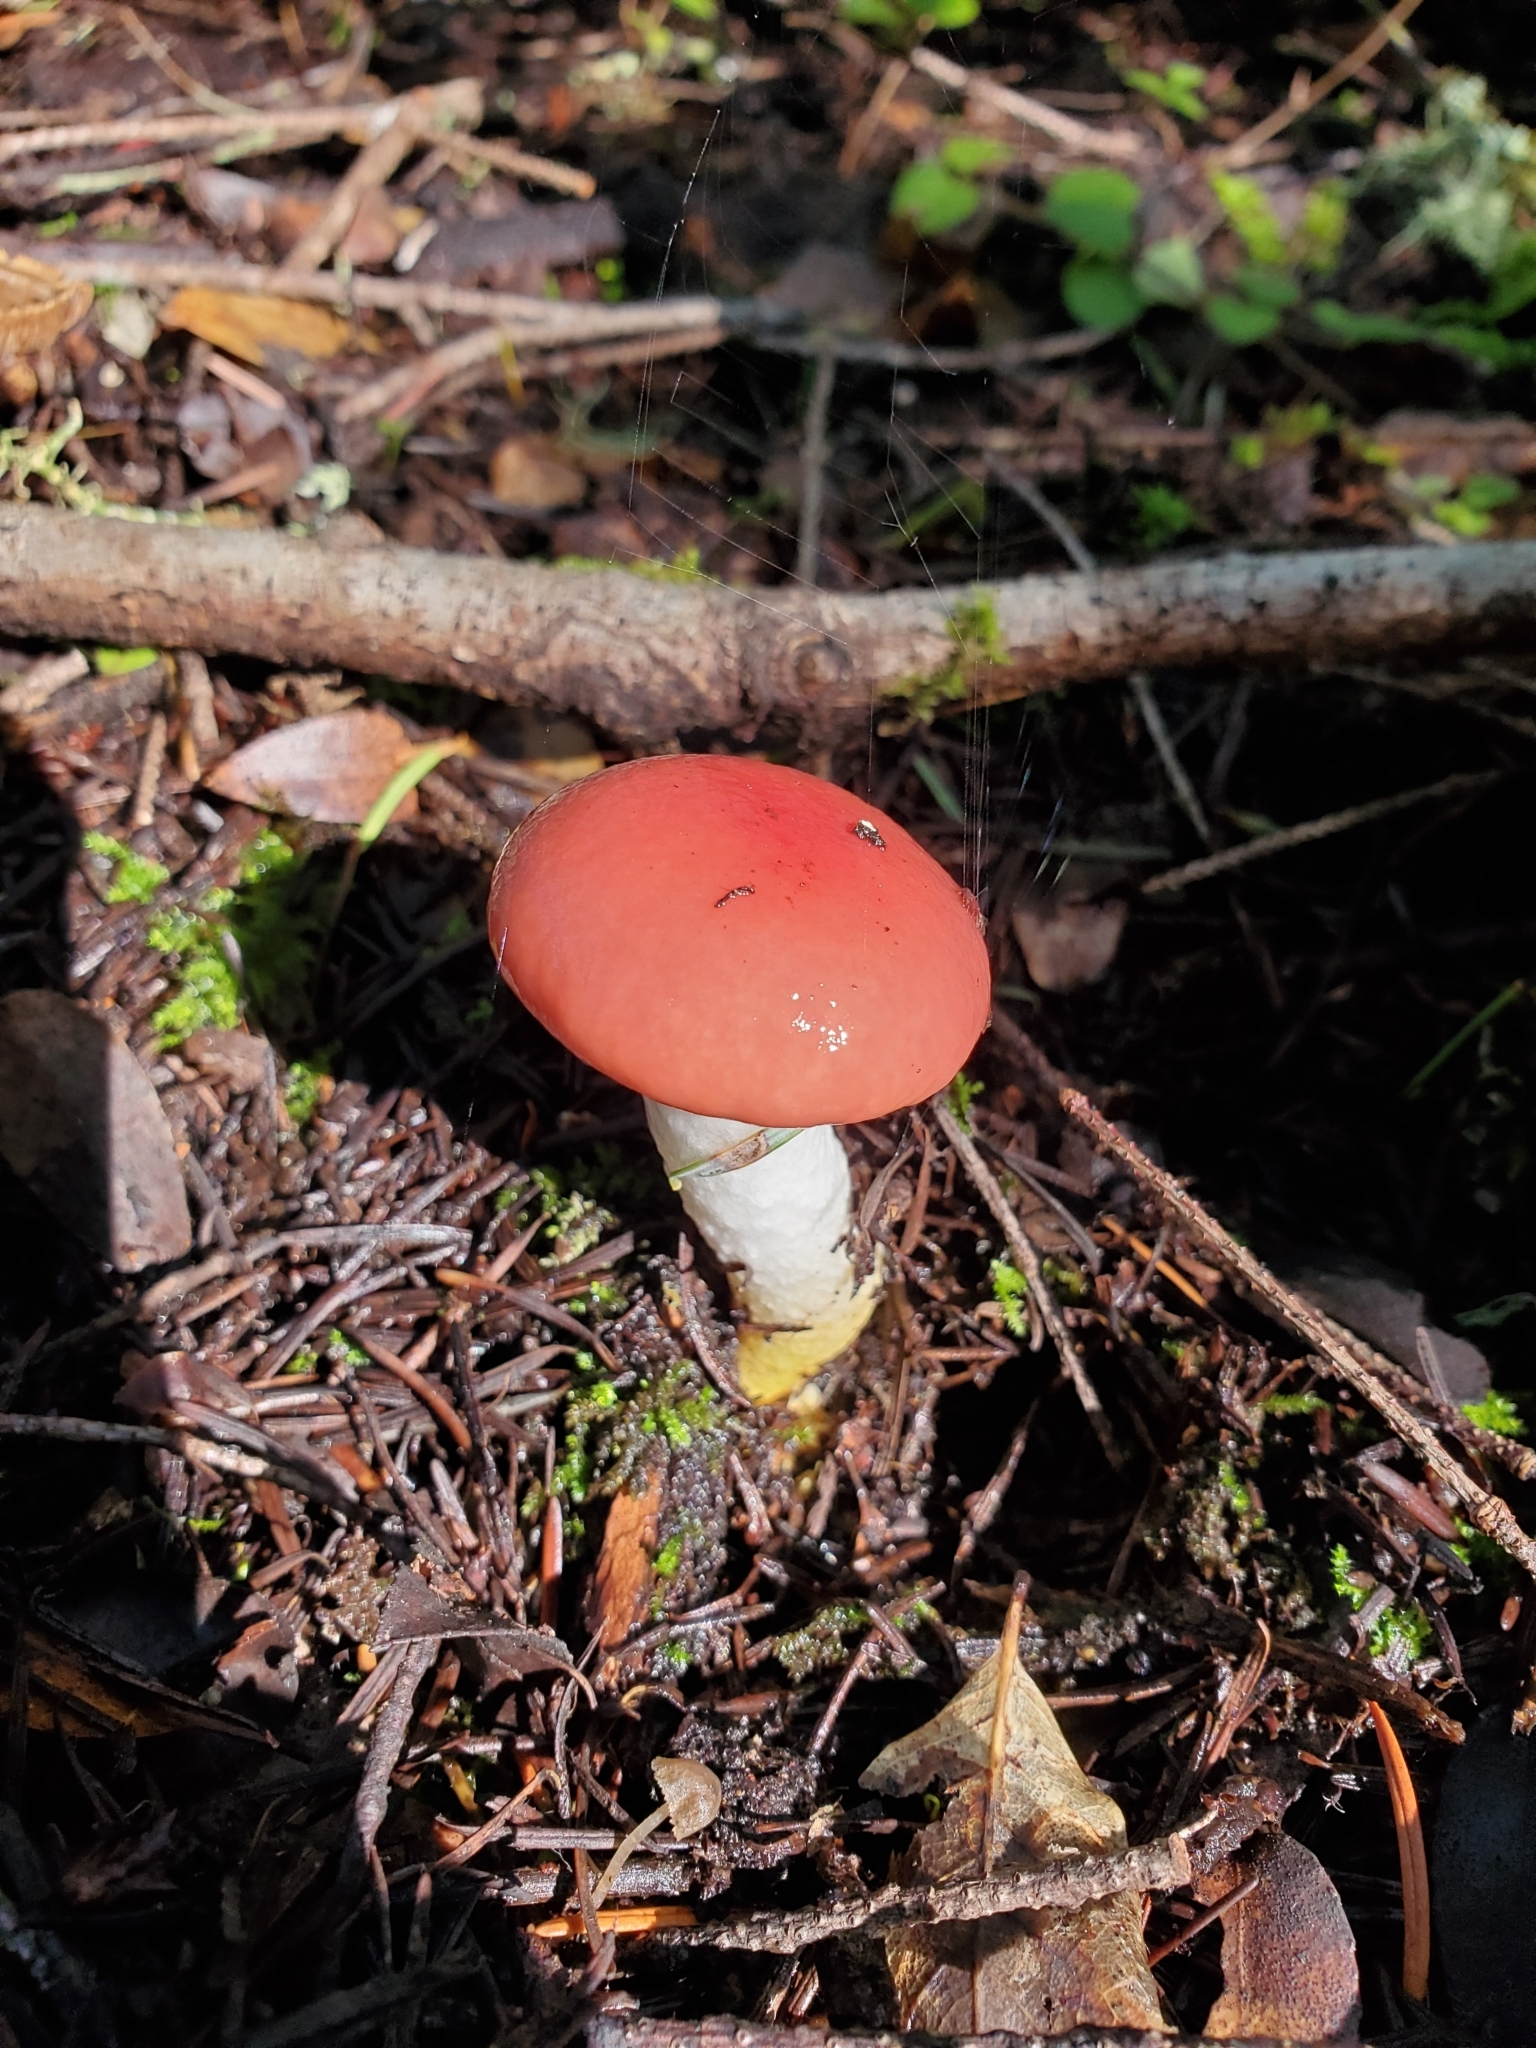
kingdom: Fungi
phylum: Basidiomycota
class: Agaricomycetes
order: Boletales
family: Gomphidiaceae
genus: Gomphidius
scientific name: Gomphidius subroseus
